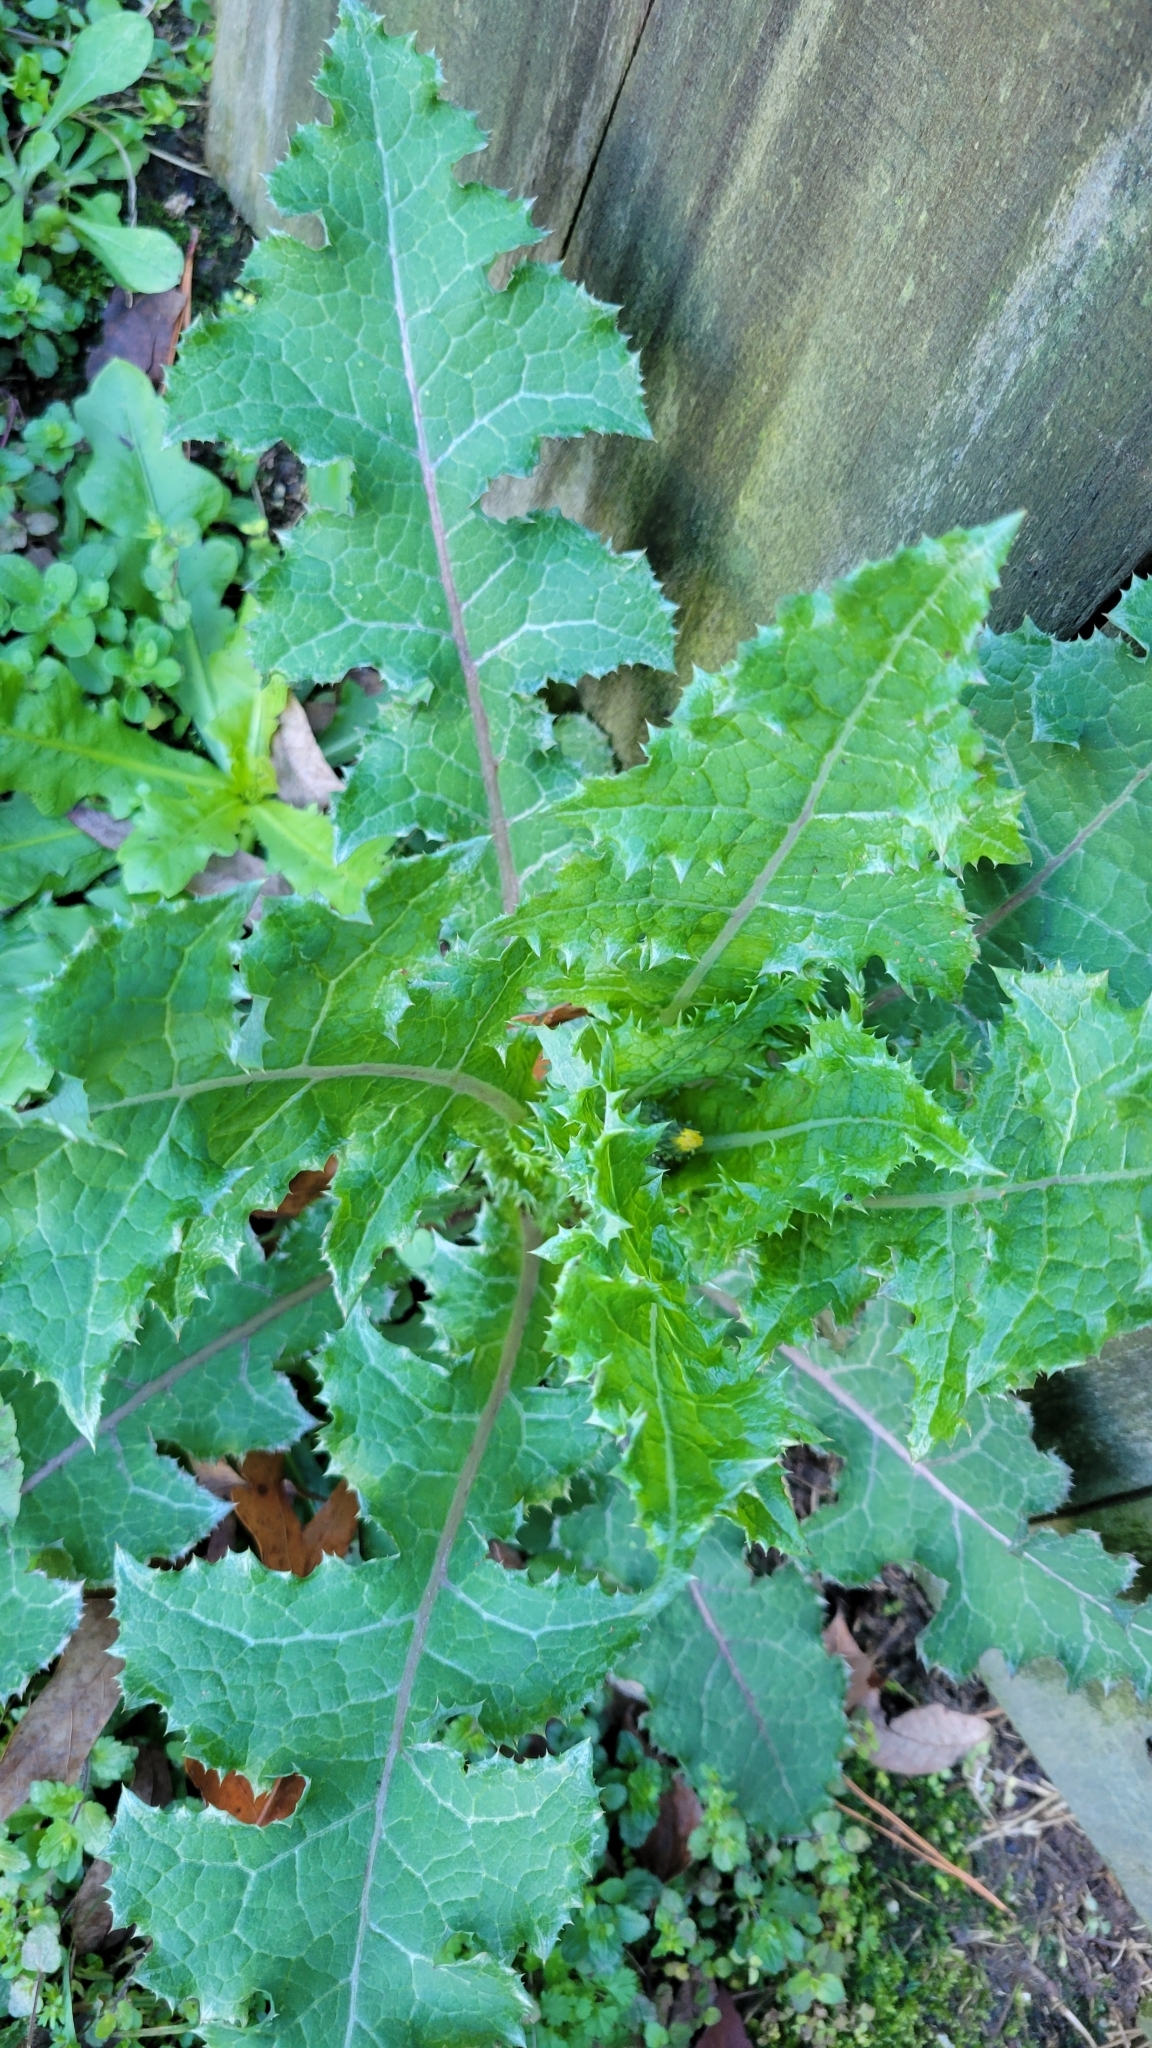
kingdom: Plantae
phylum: Tracheophyta
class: Magnoliopsida
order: Asterales
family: Asteraceae
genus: Sonchus
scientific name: Sonchus asper
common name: Prickly sow-thistle
